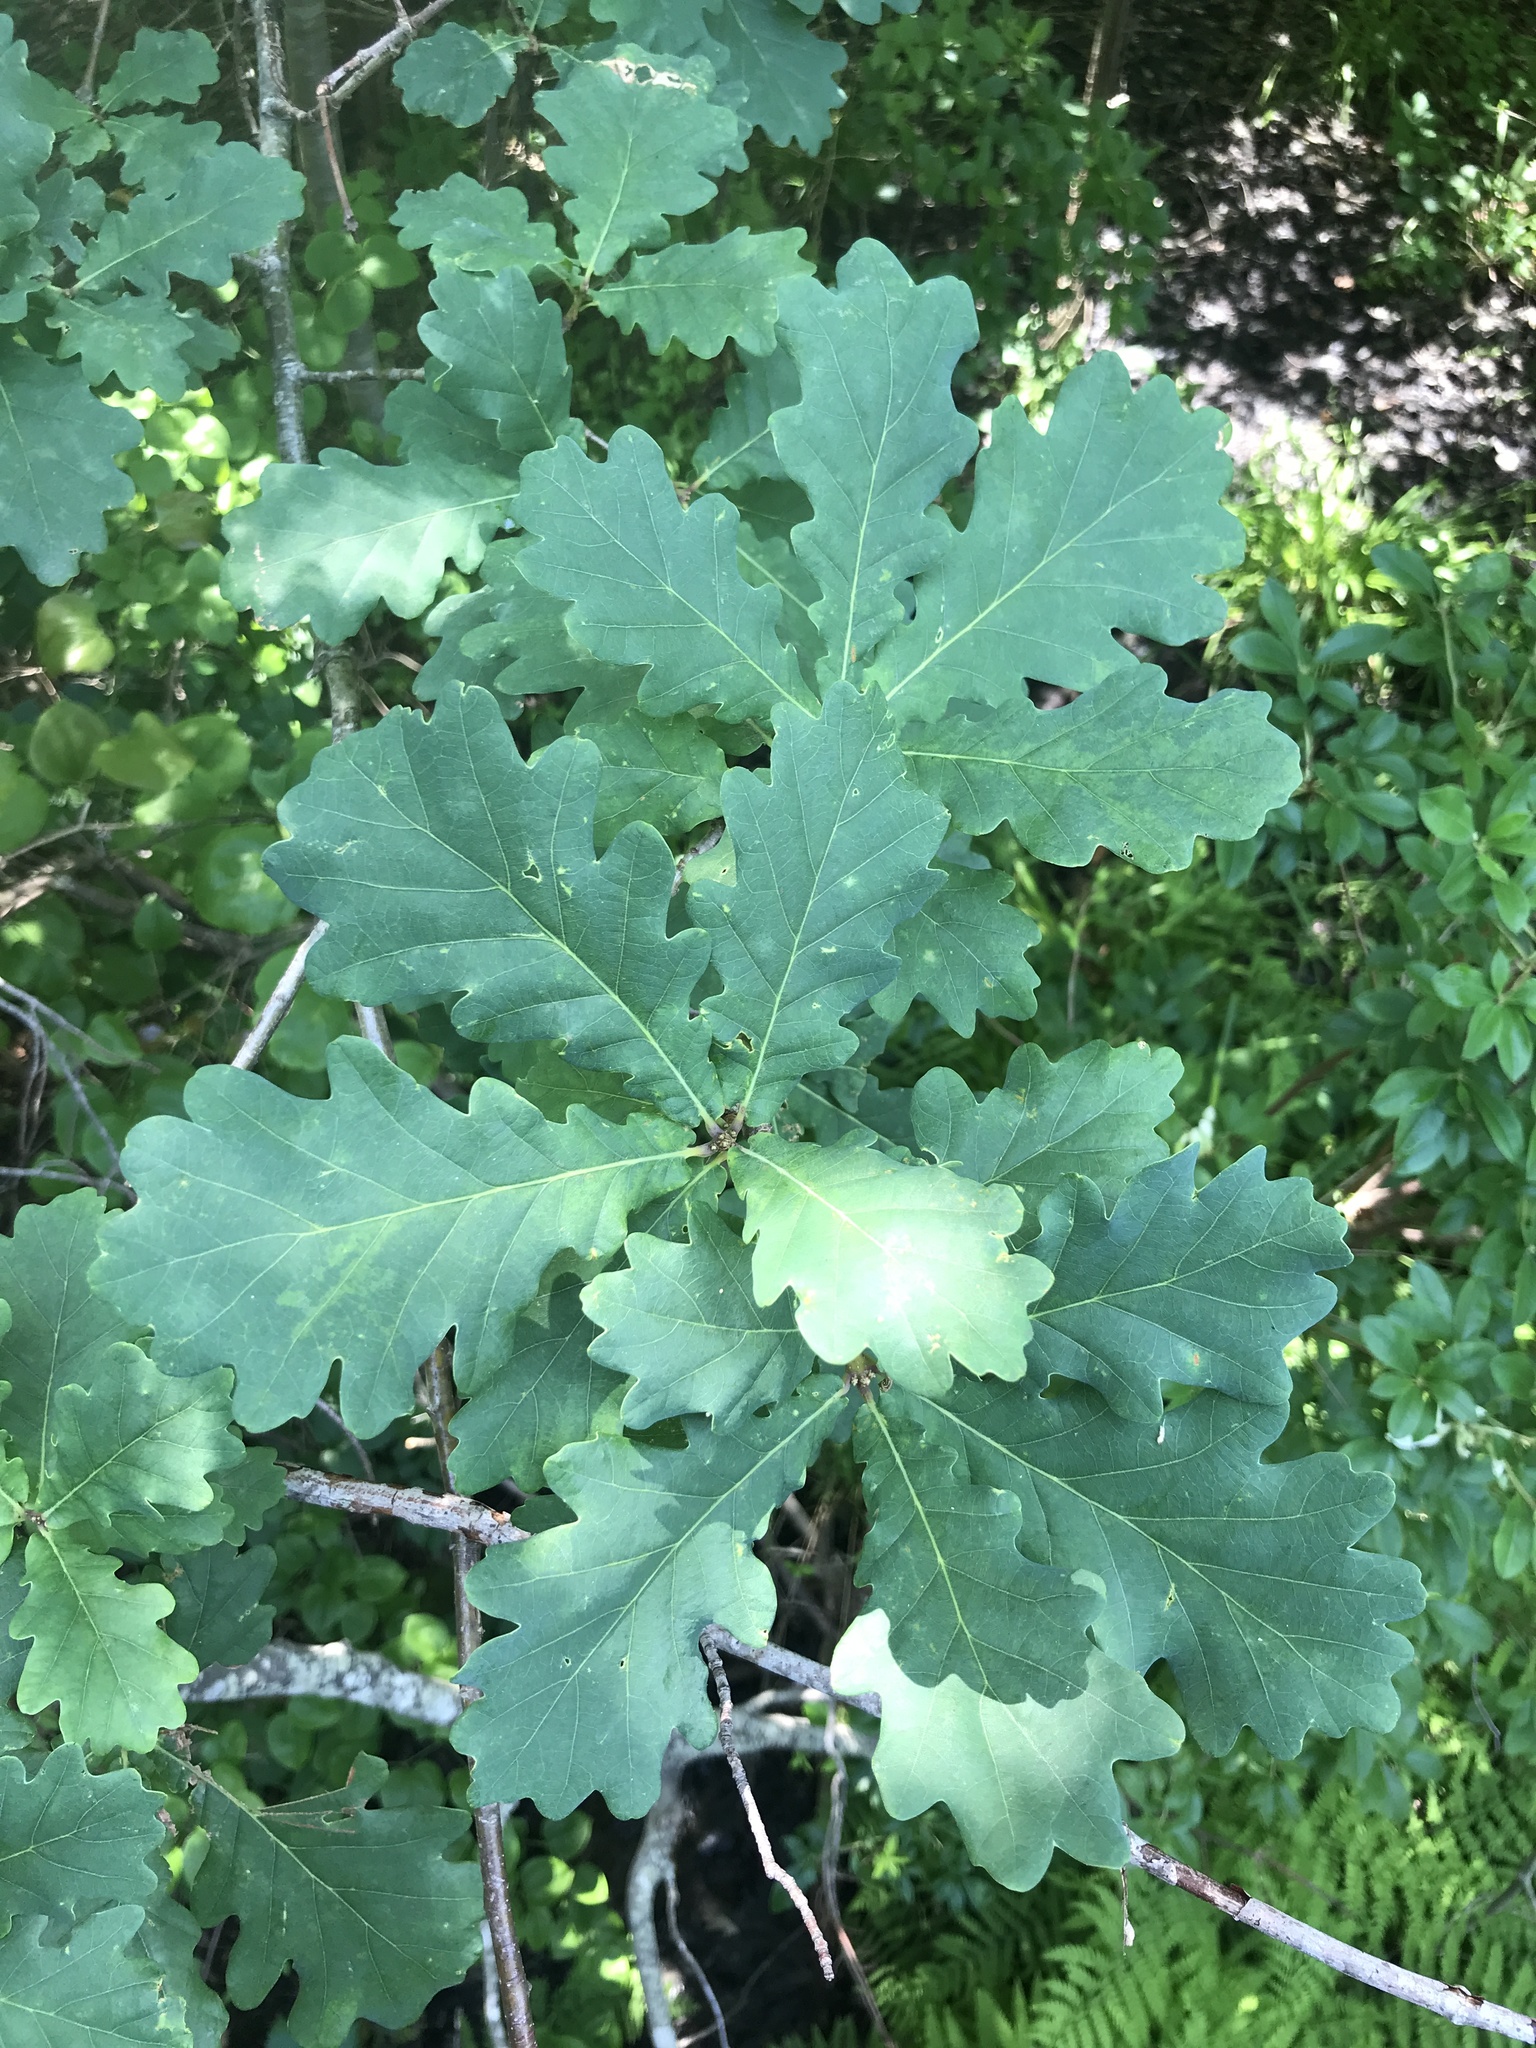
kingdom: Plantae
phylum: Tracheophyta
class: Magnoliopsida
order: Fagales
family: Fagaceae
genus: Quercus
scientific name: Quercus robur
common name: Pedunculate oak
